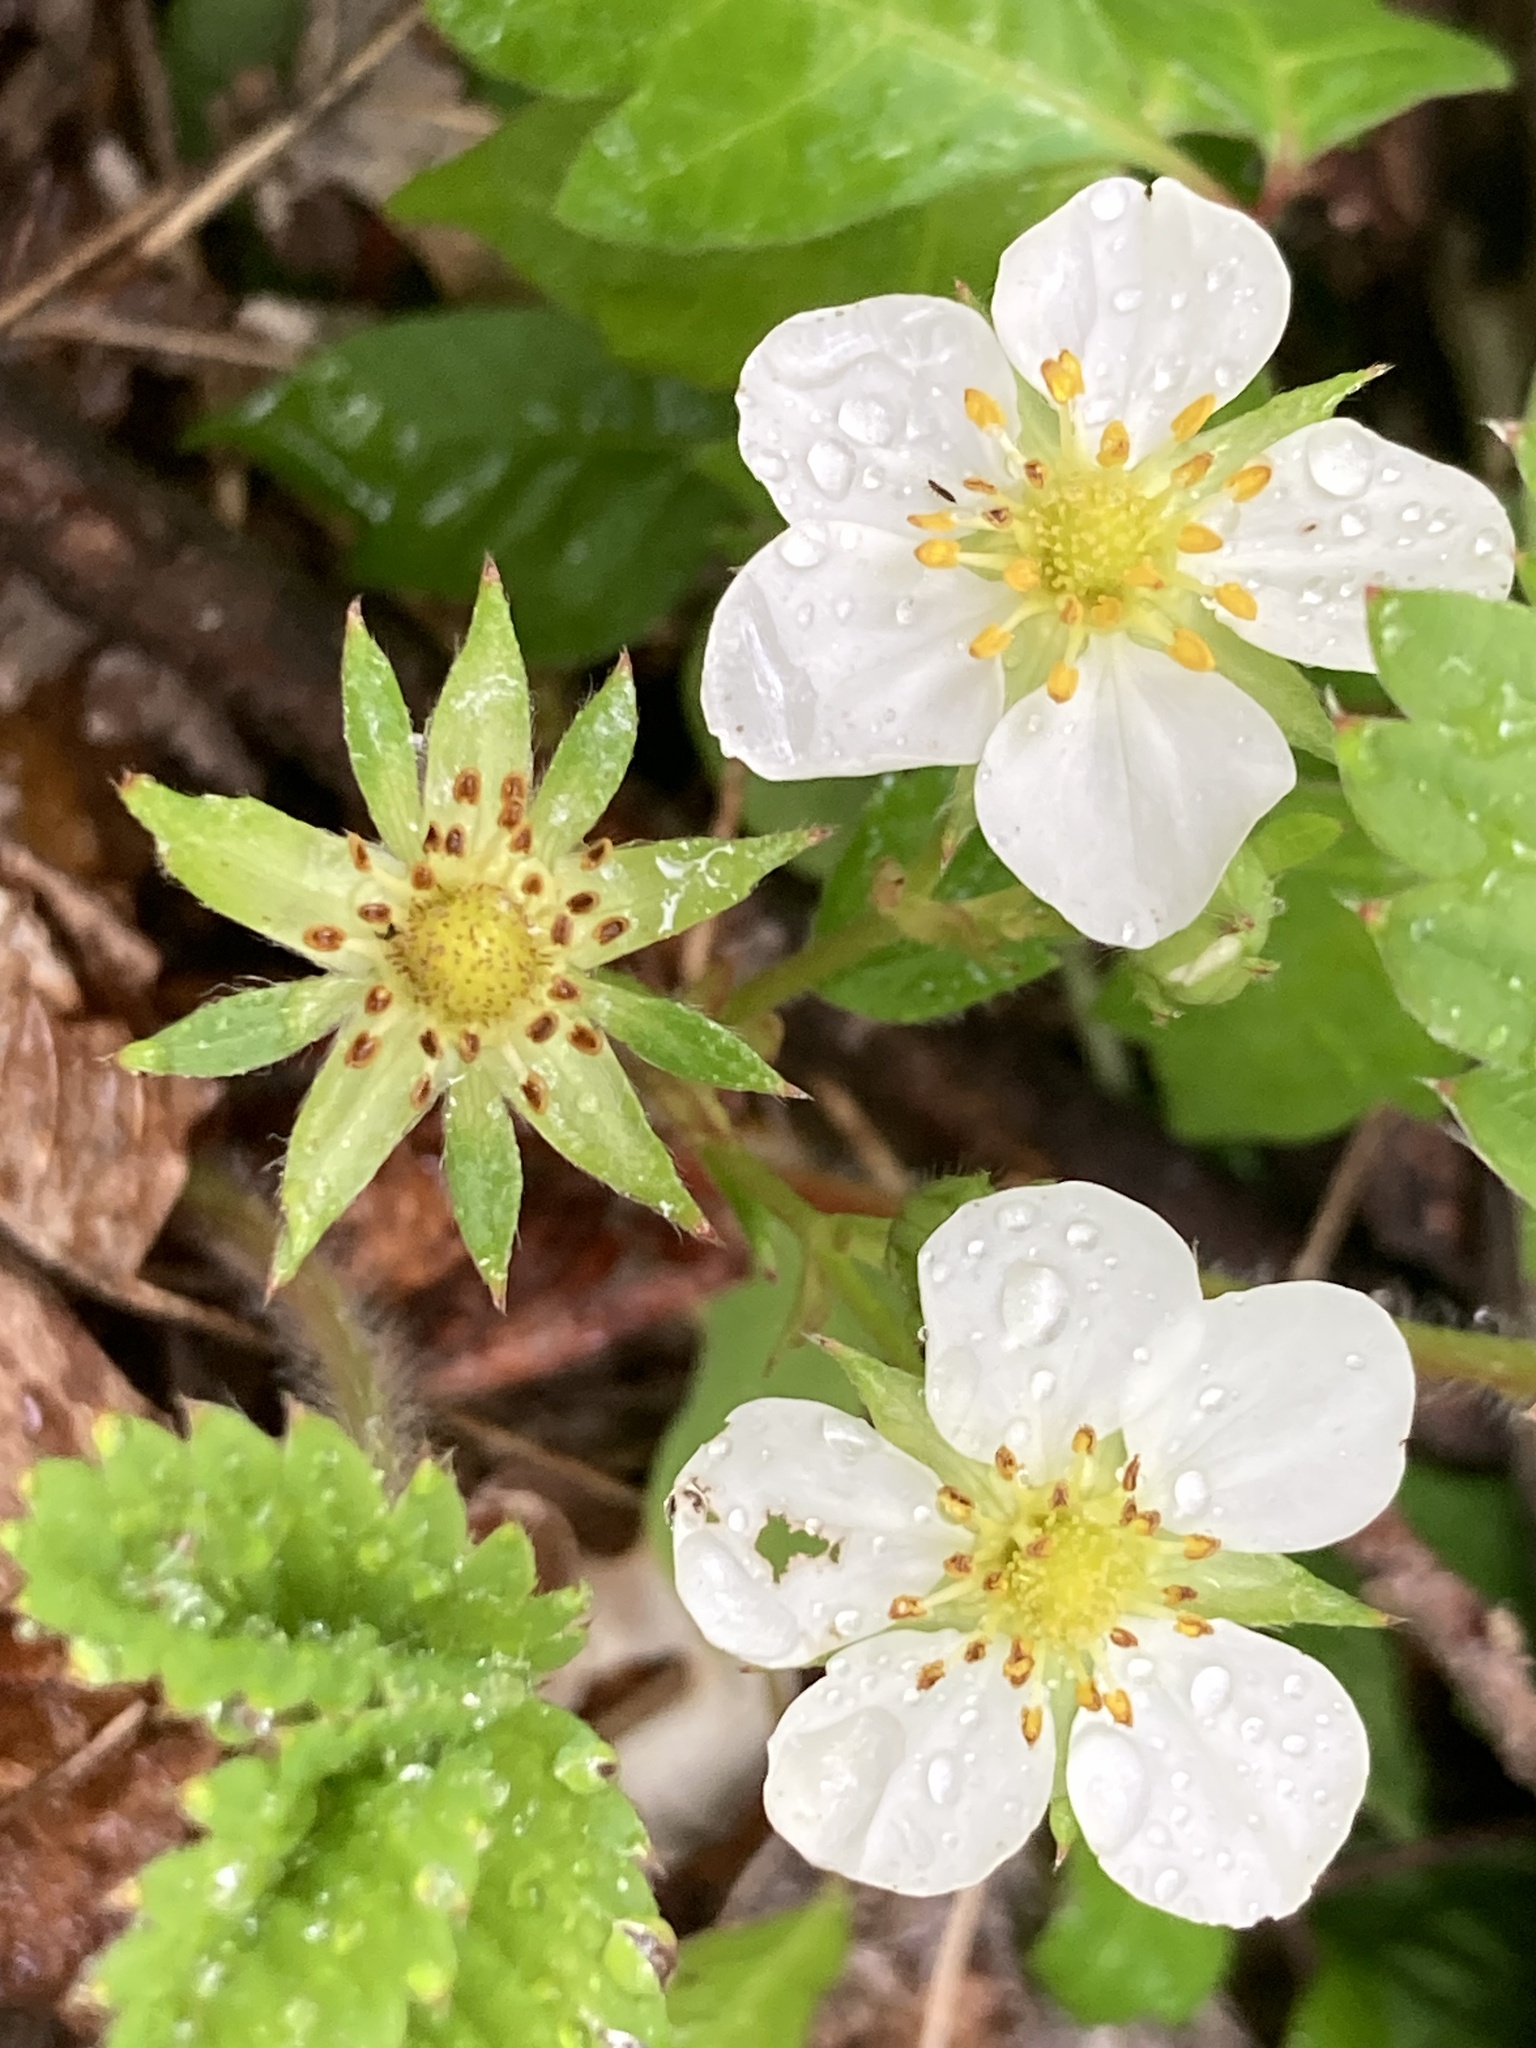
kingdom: Plantae
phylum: Tracheophyta
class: Magnoliopsida
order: Rosales
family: Rosaceae
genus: Fragaria
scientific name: Fragaria virginiana
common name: Thickleaved wild strawberry
